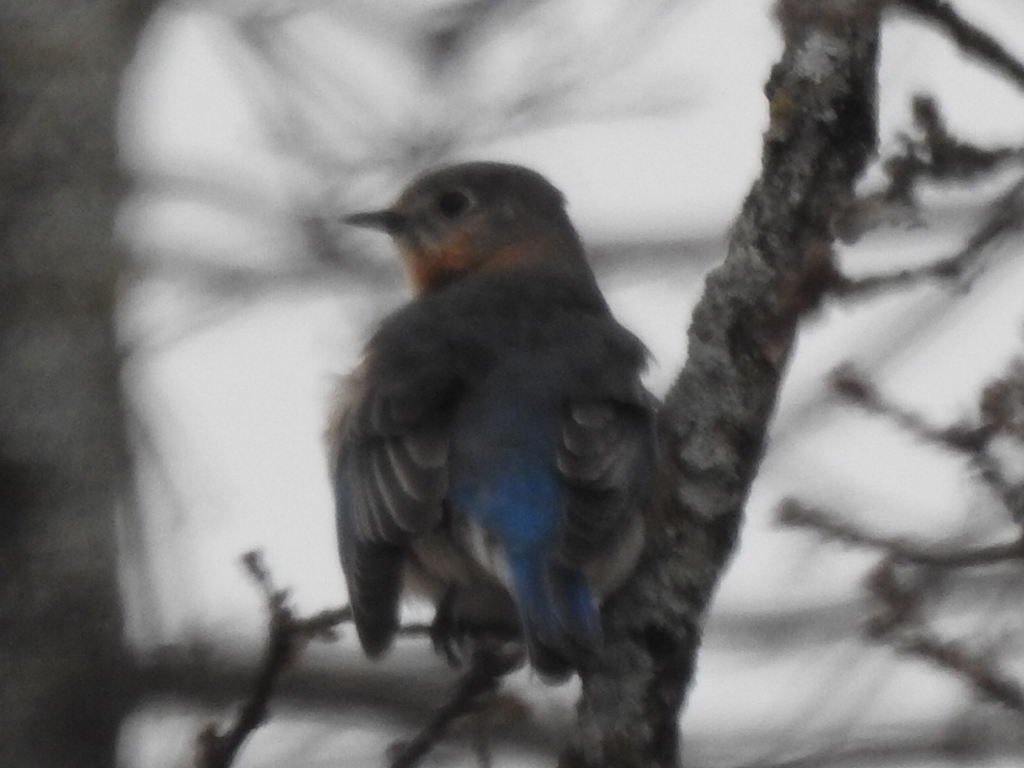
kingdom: Animalia
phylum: Chordata
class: Aves
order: Passeriformes
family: Turdidae
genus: Sialia
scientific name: Sialia sialis
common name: Eastern bluebird
